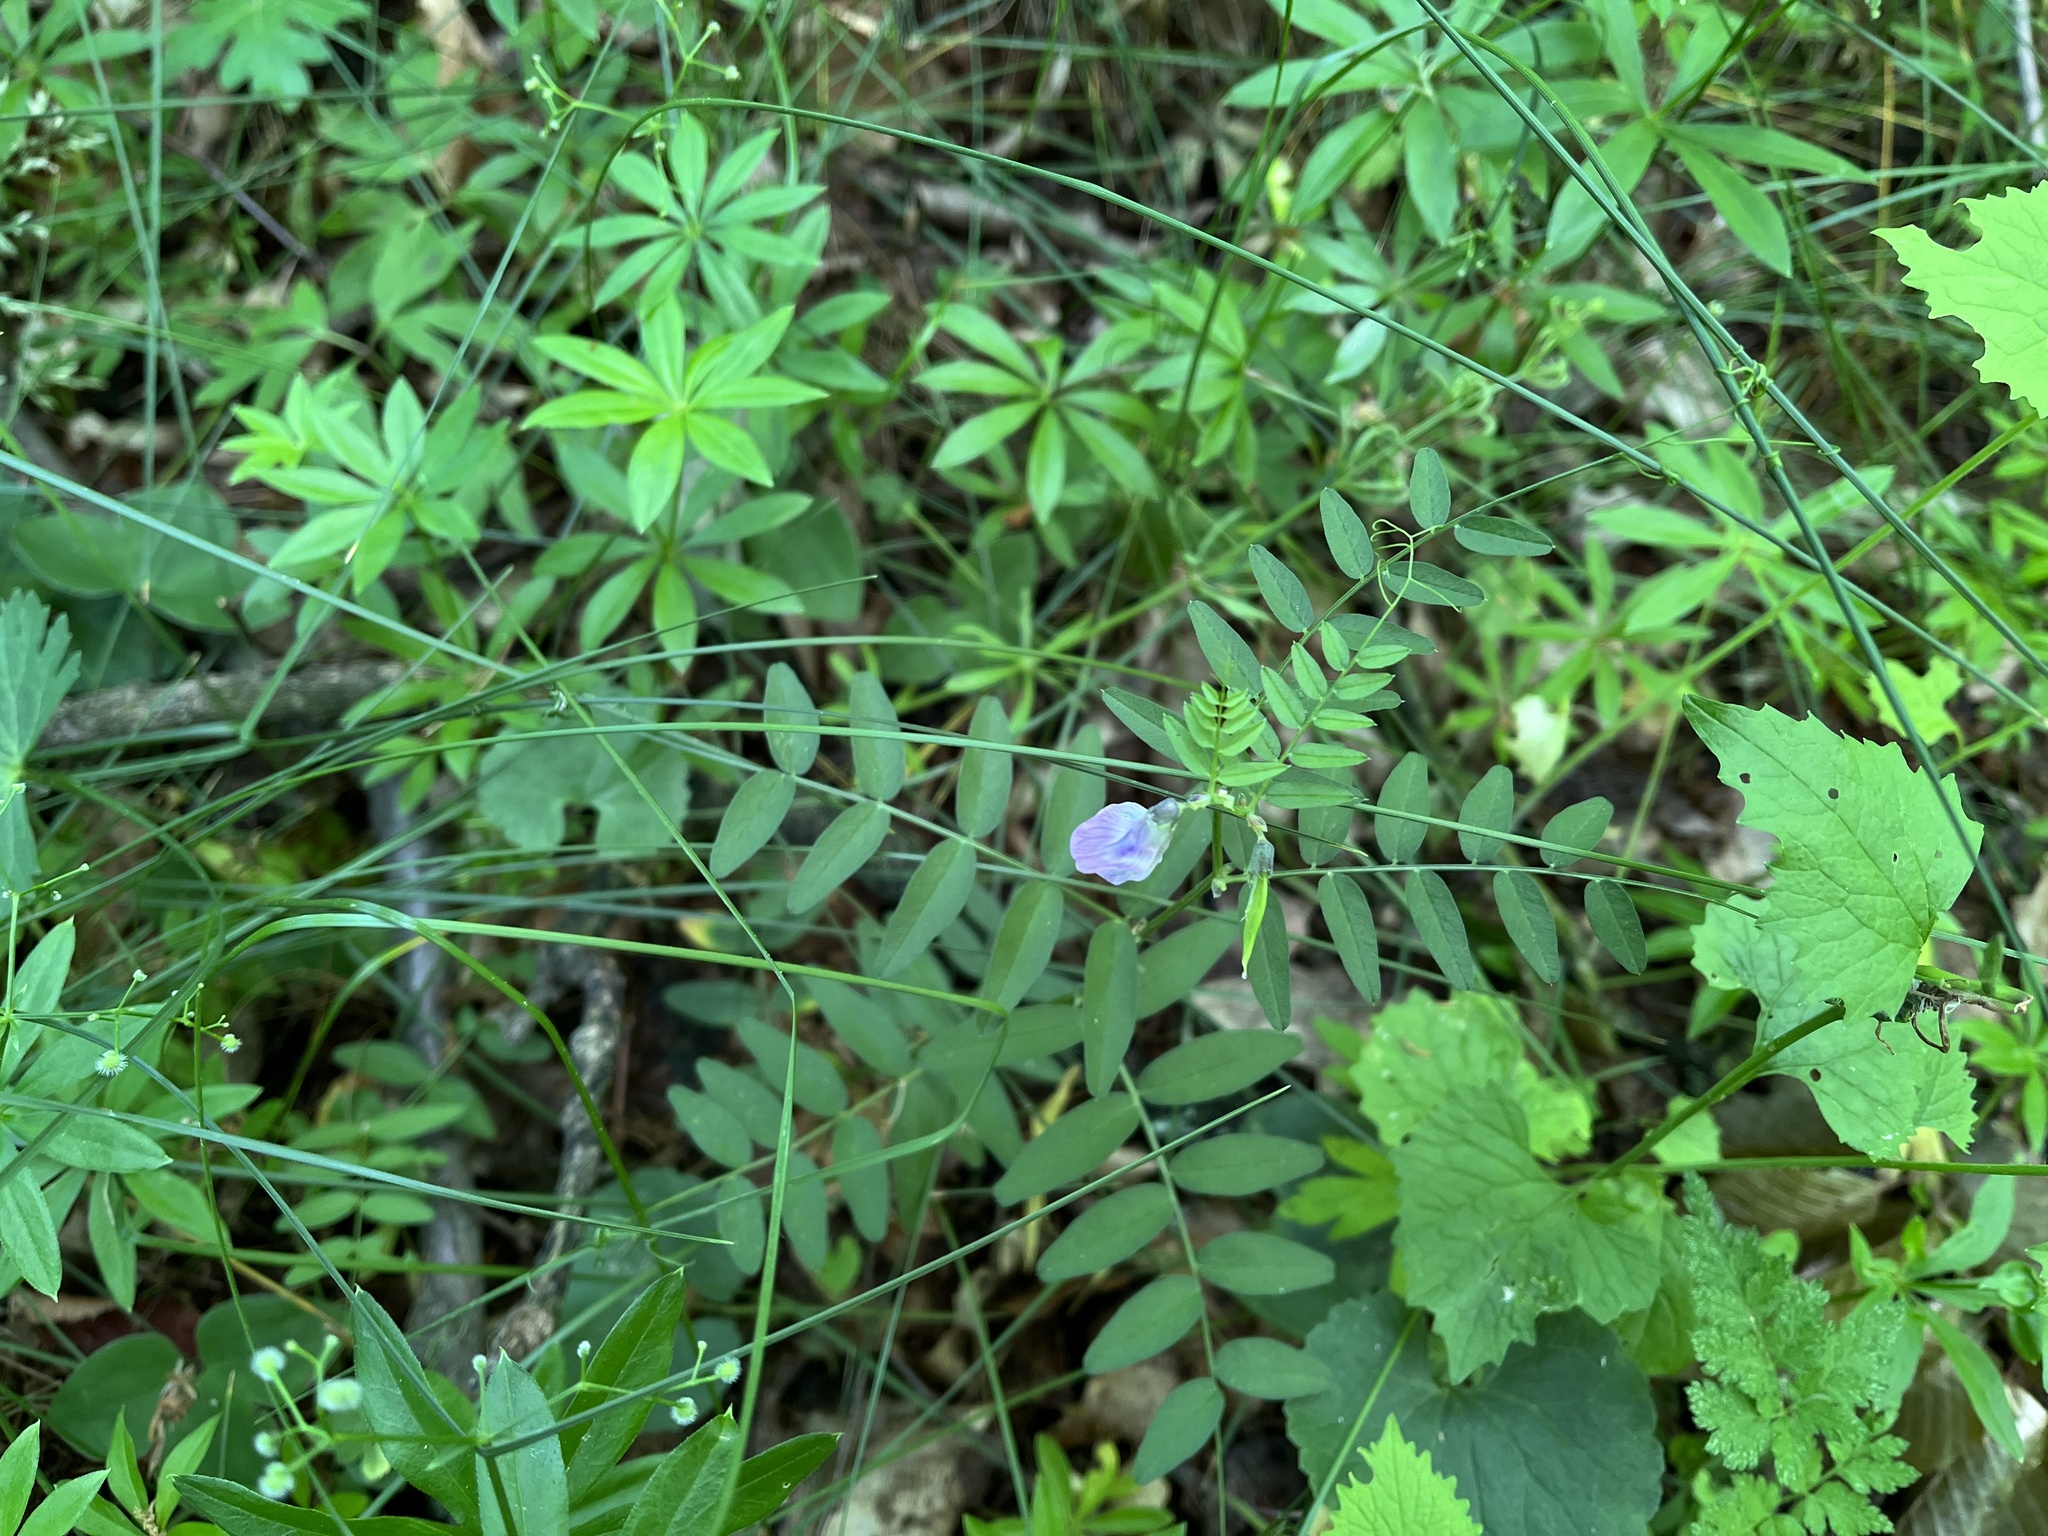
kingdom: Plantae
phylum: Tracheophyta
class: Magnoliopsida
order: Fabales
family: Fabaceae
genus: Vicia
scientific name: Vicia sepium
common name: Bush vetch
